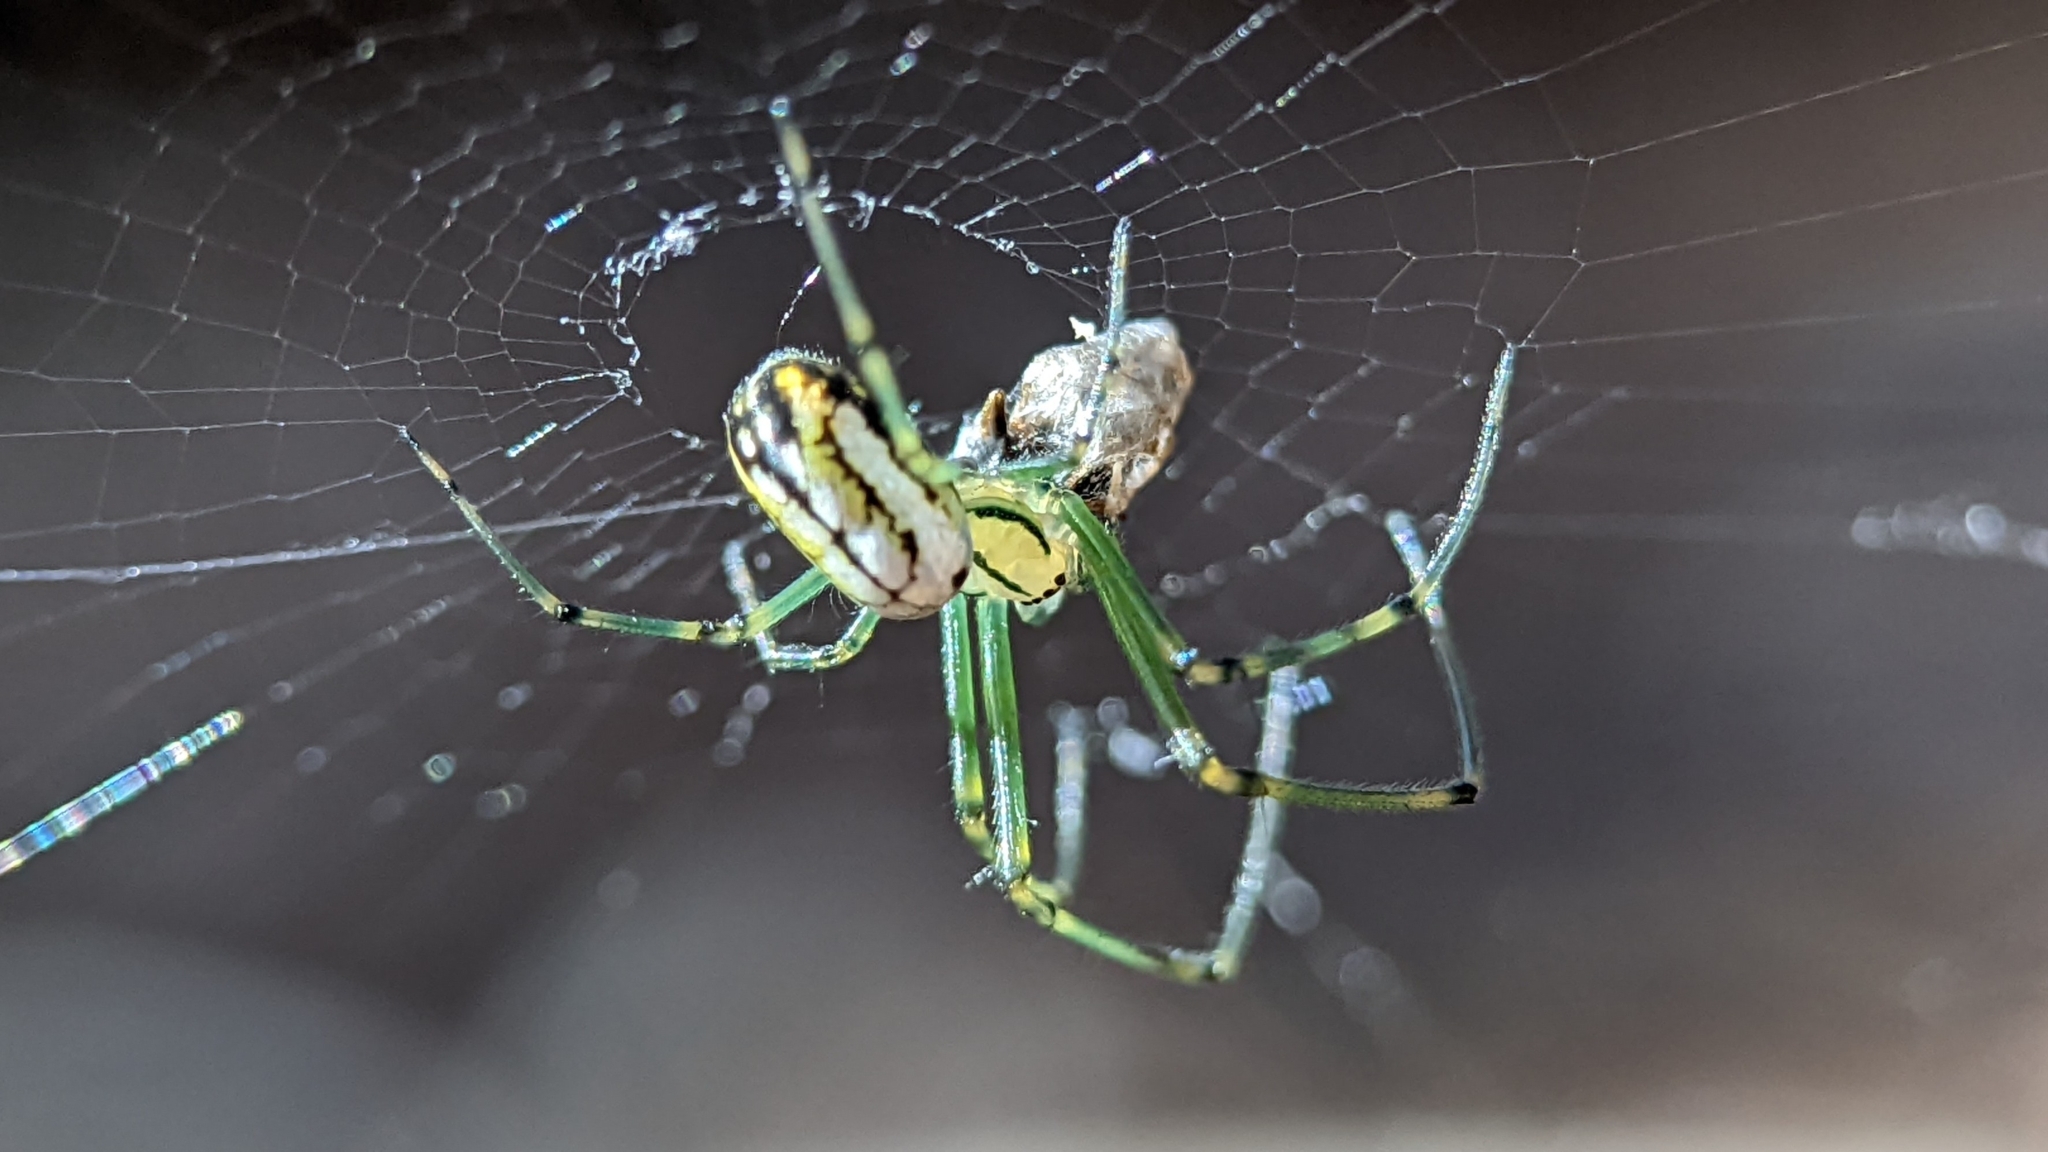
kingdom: Animalia
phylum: Arthropoda
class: Arachnida
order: Araneae
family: Tetragnathidae
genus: Leucauge
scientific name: Leucauge venusta
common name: Longjawed orb weavers
